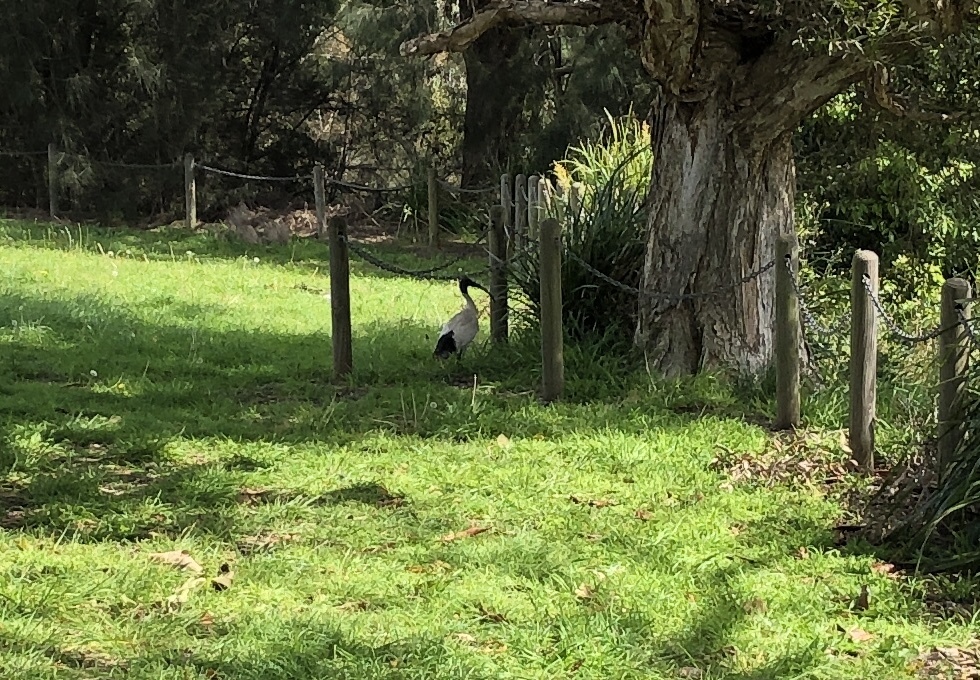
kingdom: Animalia
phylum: Chordata
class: Aves
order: Pelecaniformes
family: Threskiornithidae
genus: Threskiornis
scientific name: Threskiornis molucca
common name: Australian white ibis
